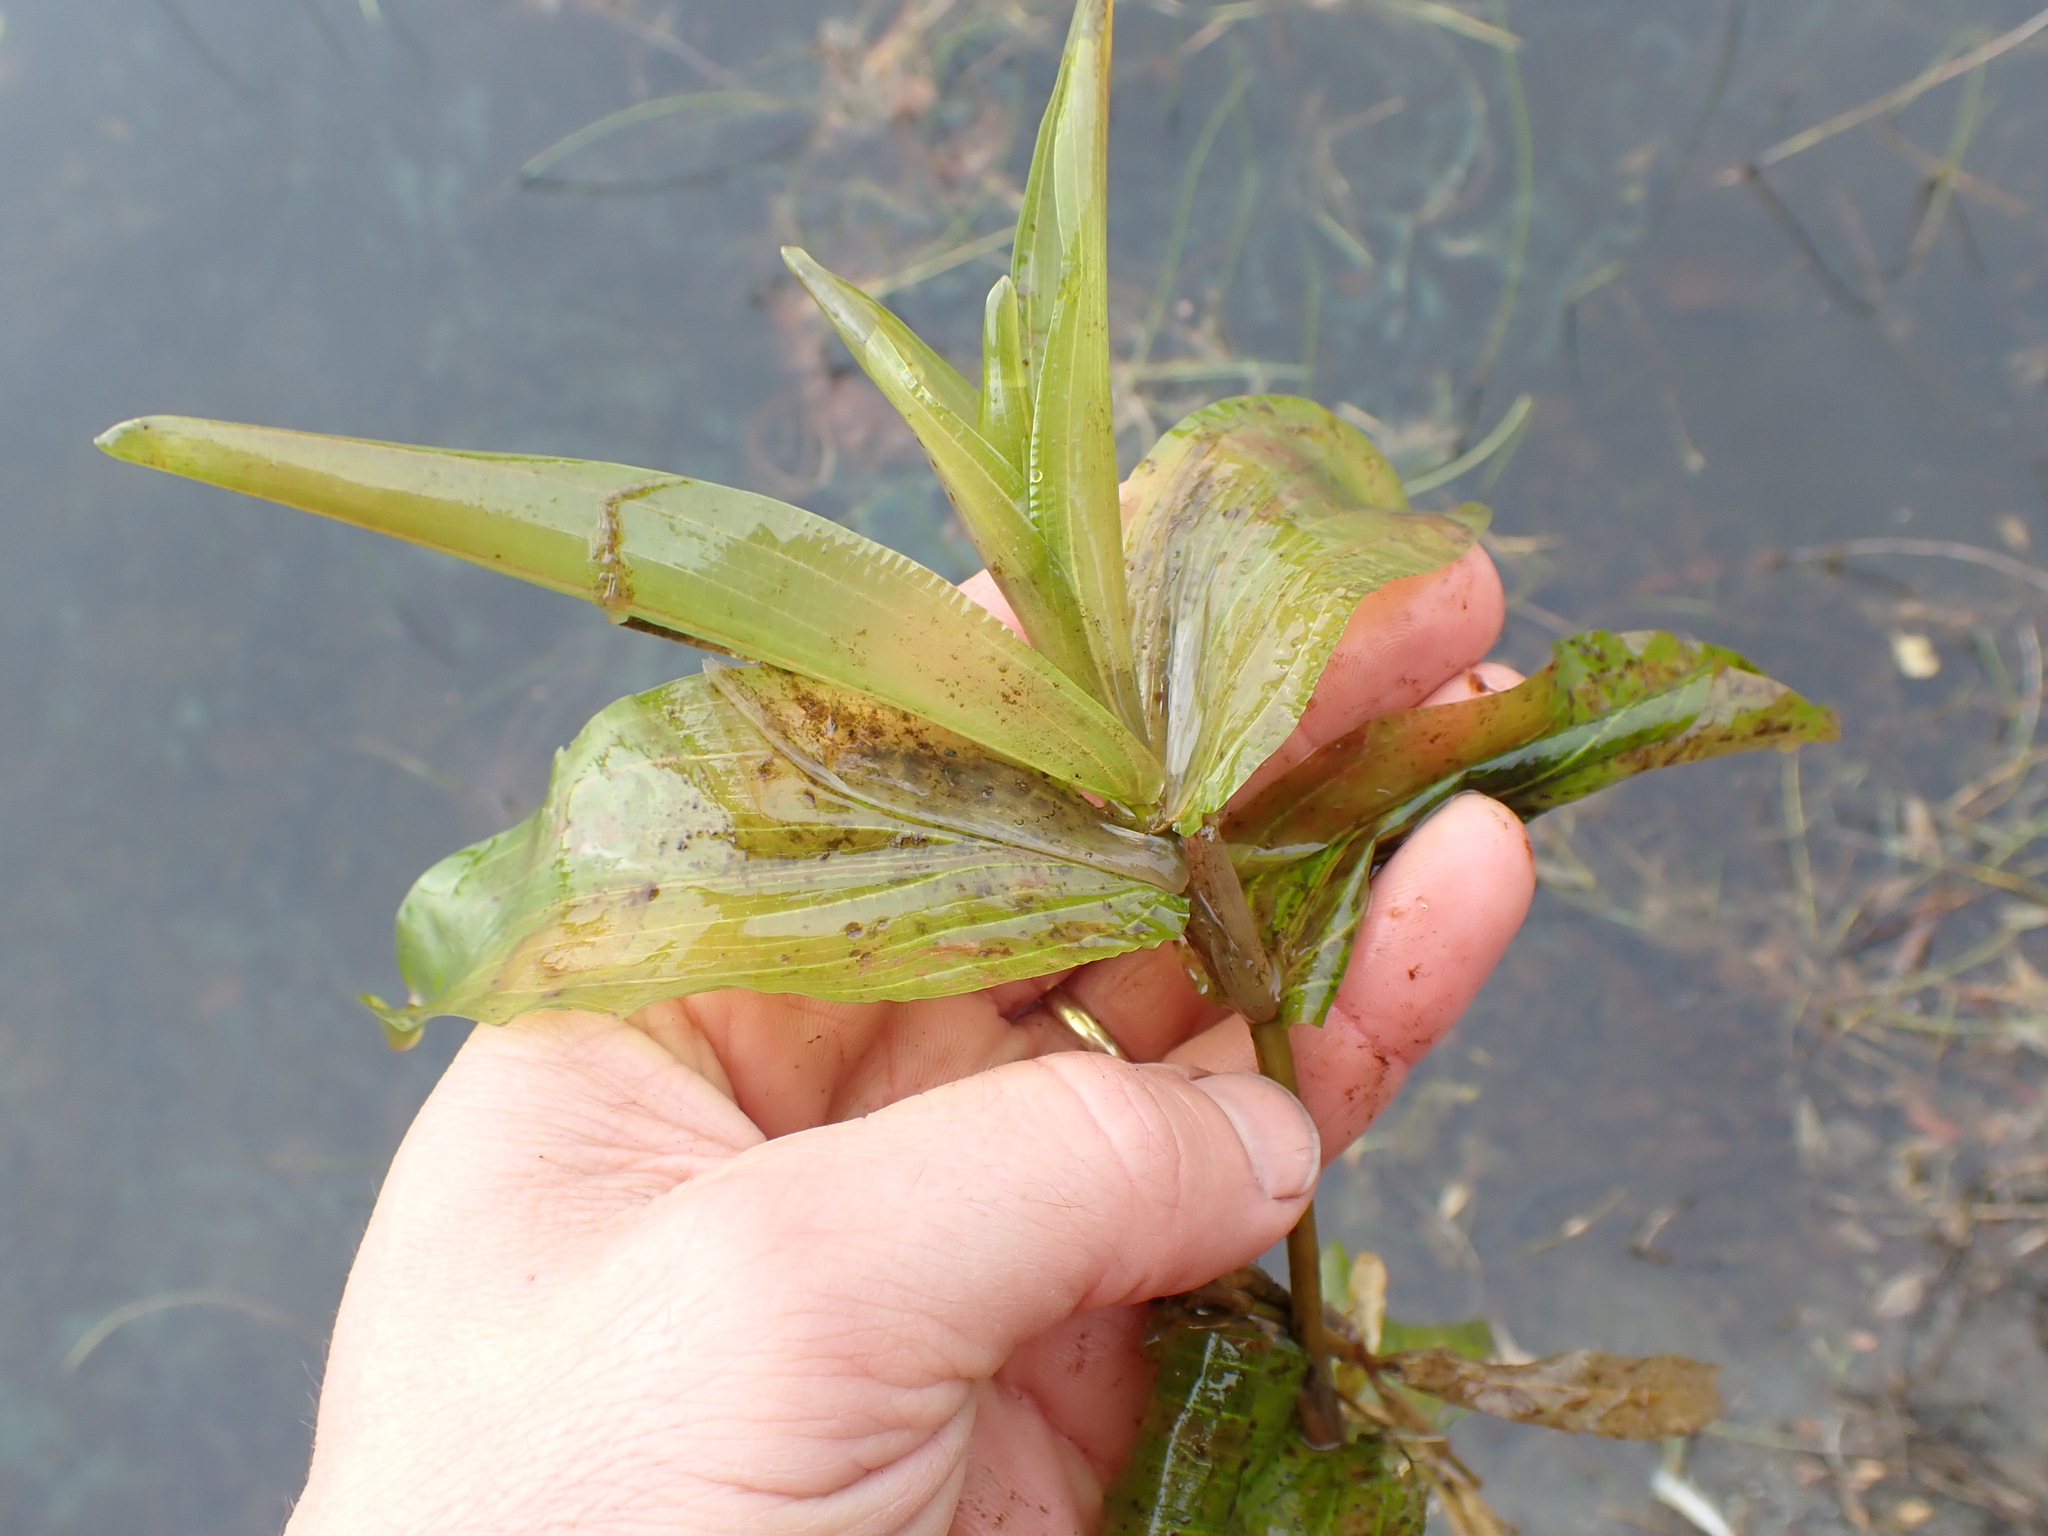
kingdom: Plantae
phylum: Tracheophyta
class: Liliopsida
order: Alismatales
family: Potamogetonaceae
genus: Potamogeton
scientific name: Potamogeton praelongus
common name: Long-stalked pondweed
